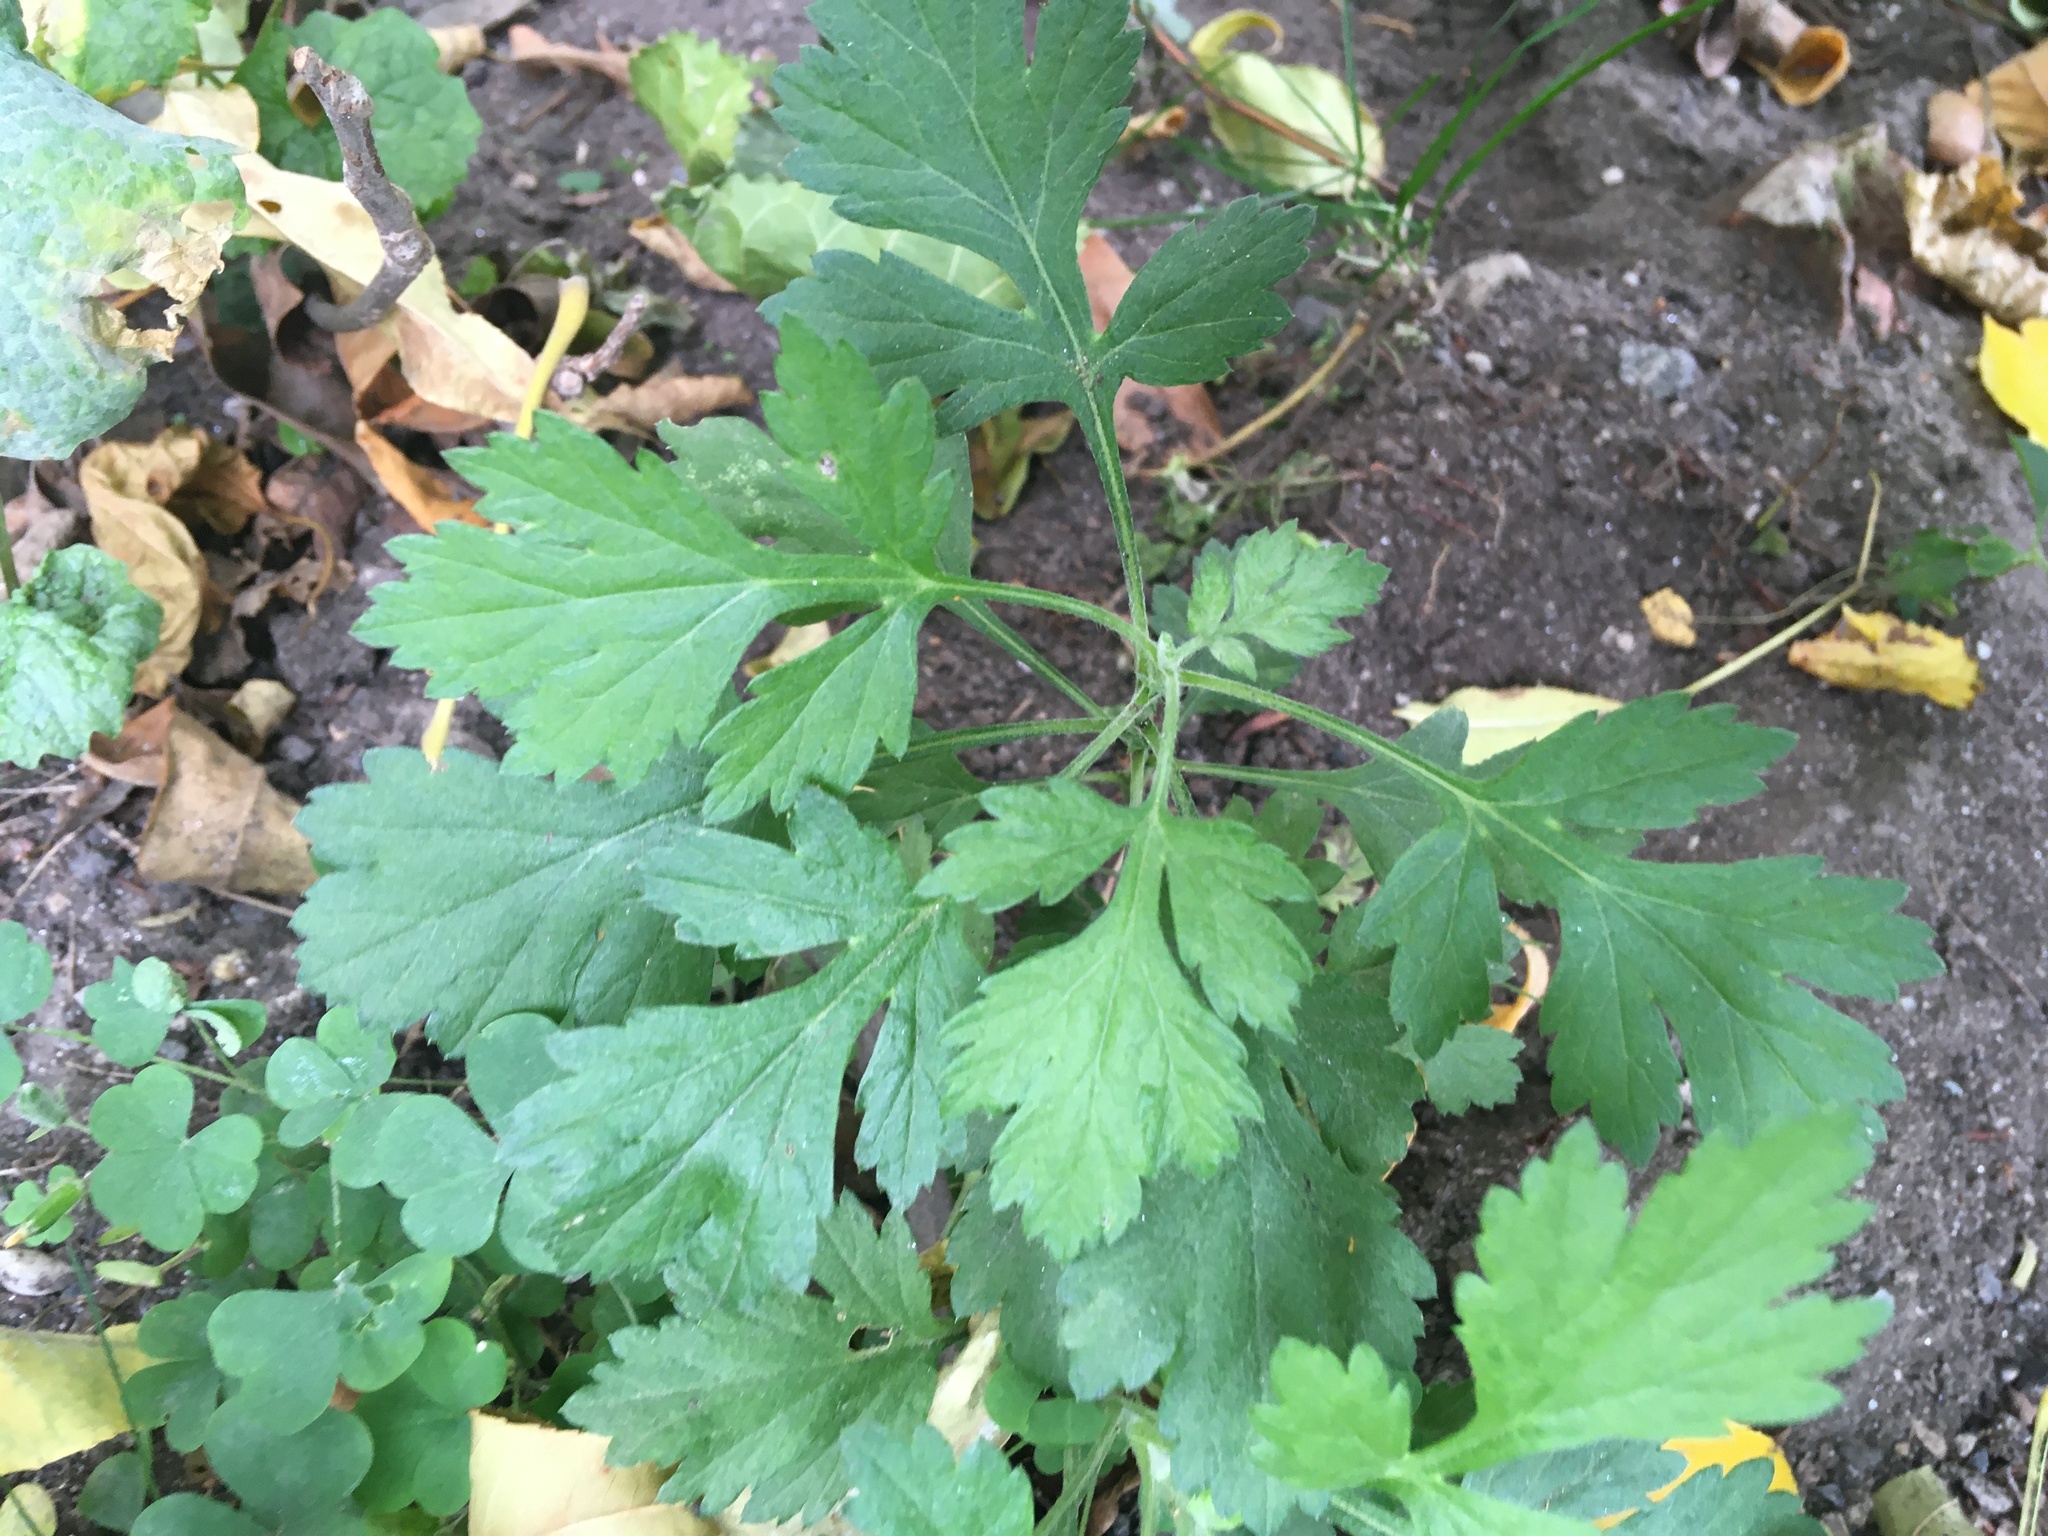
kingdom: Plantae
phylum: Tracheophyta
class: Magnoliopsida
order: Asterales
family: Asteraceae
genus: Artemisia
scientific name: Artemisia vulgaris
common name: Mugwort
